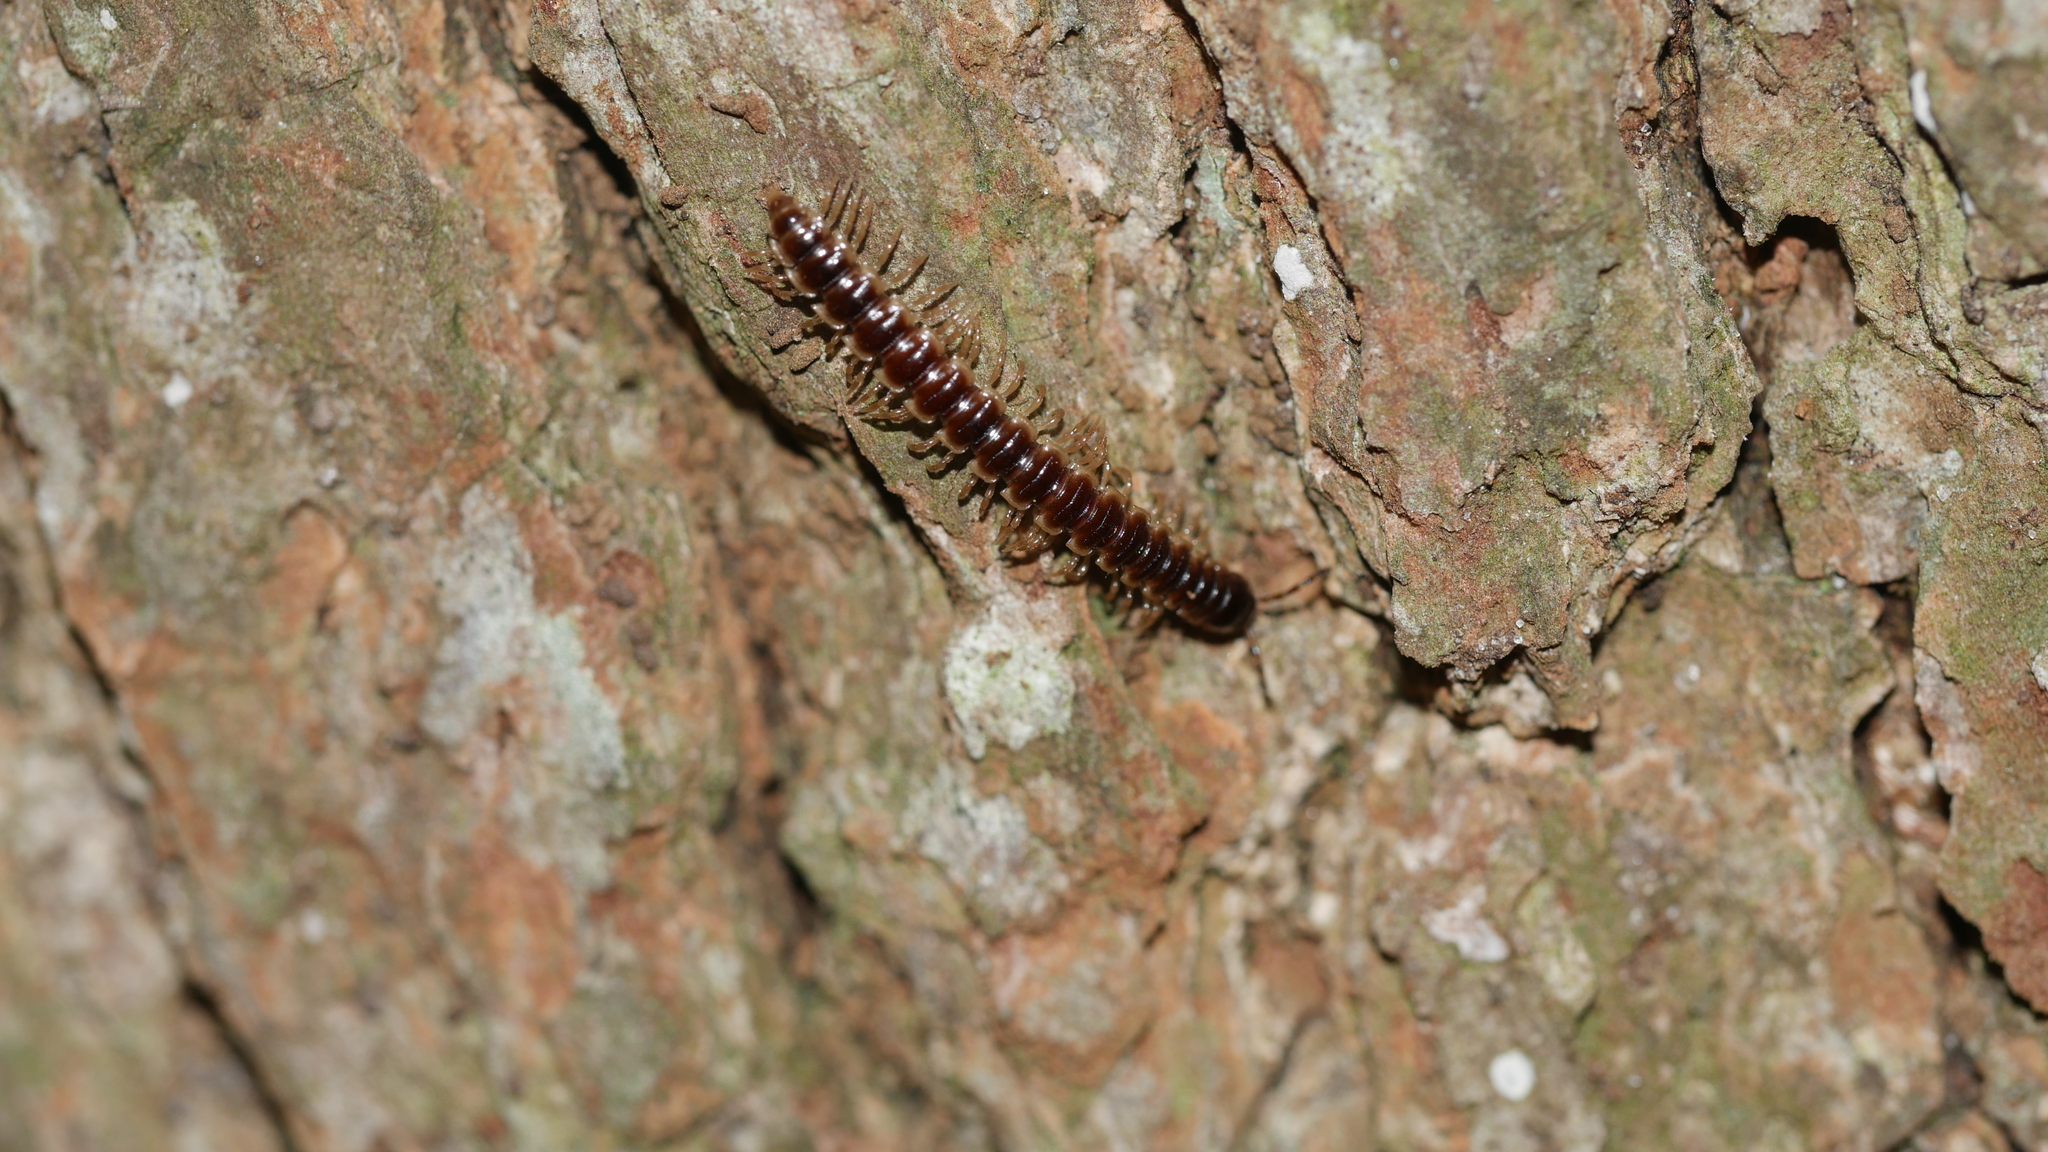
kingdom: Animalia
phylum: Arthropoda
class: Diplopoda
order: Polydesmida
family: Paradoxosomatidae
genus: Oxidus
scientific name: Oxidus gracilis
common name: Greenhouse millipede
